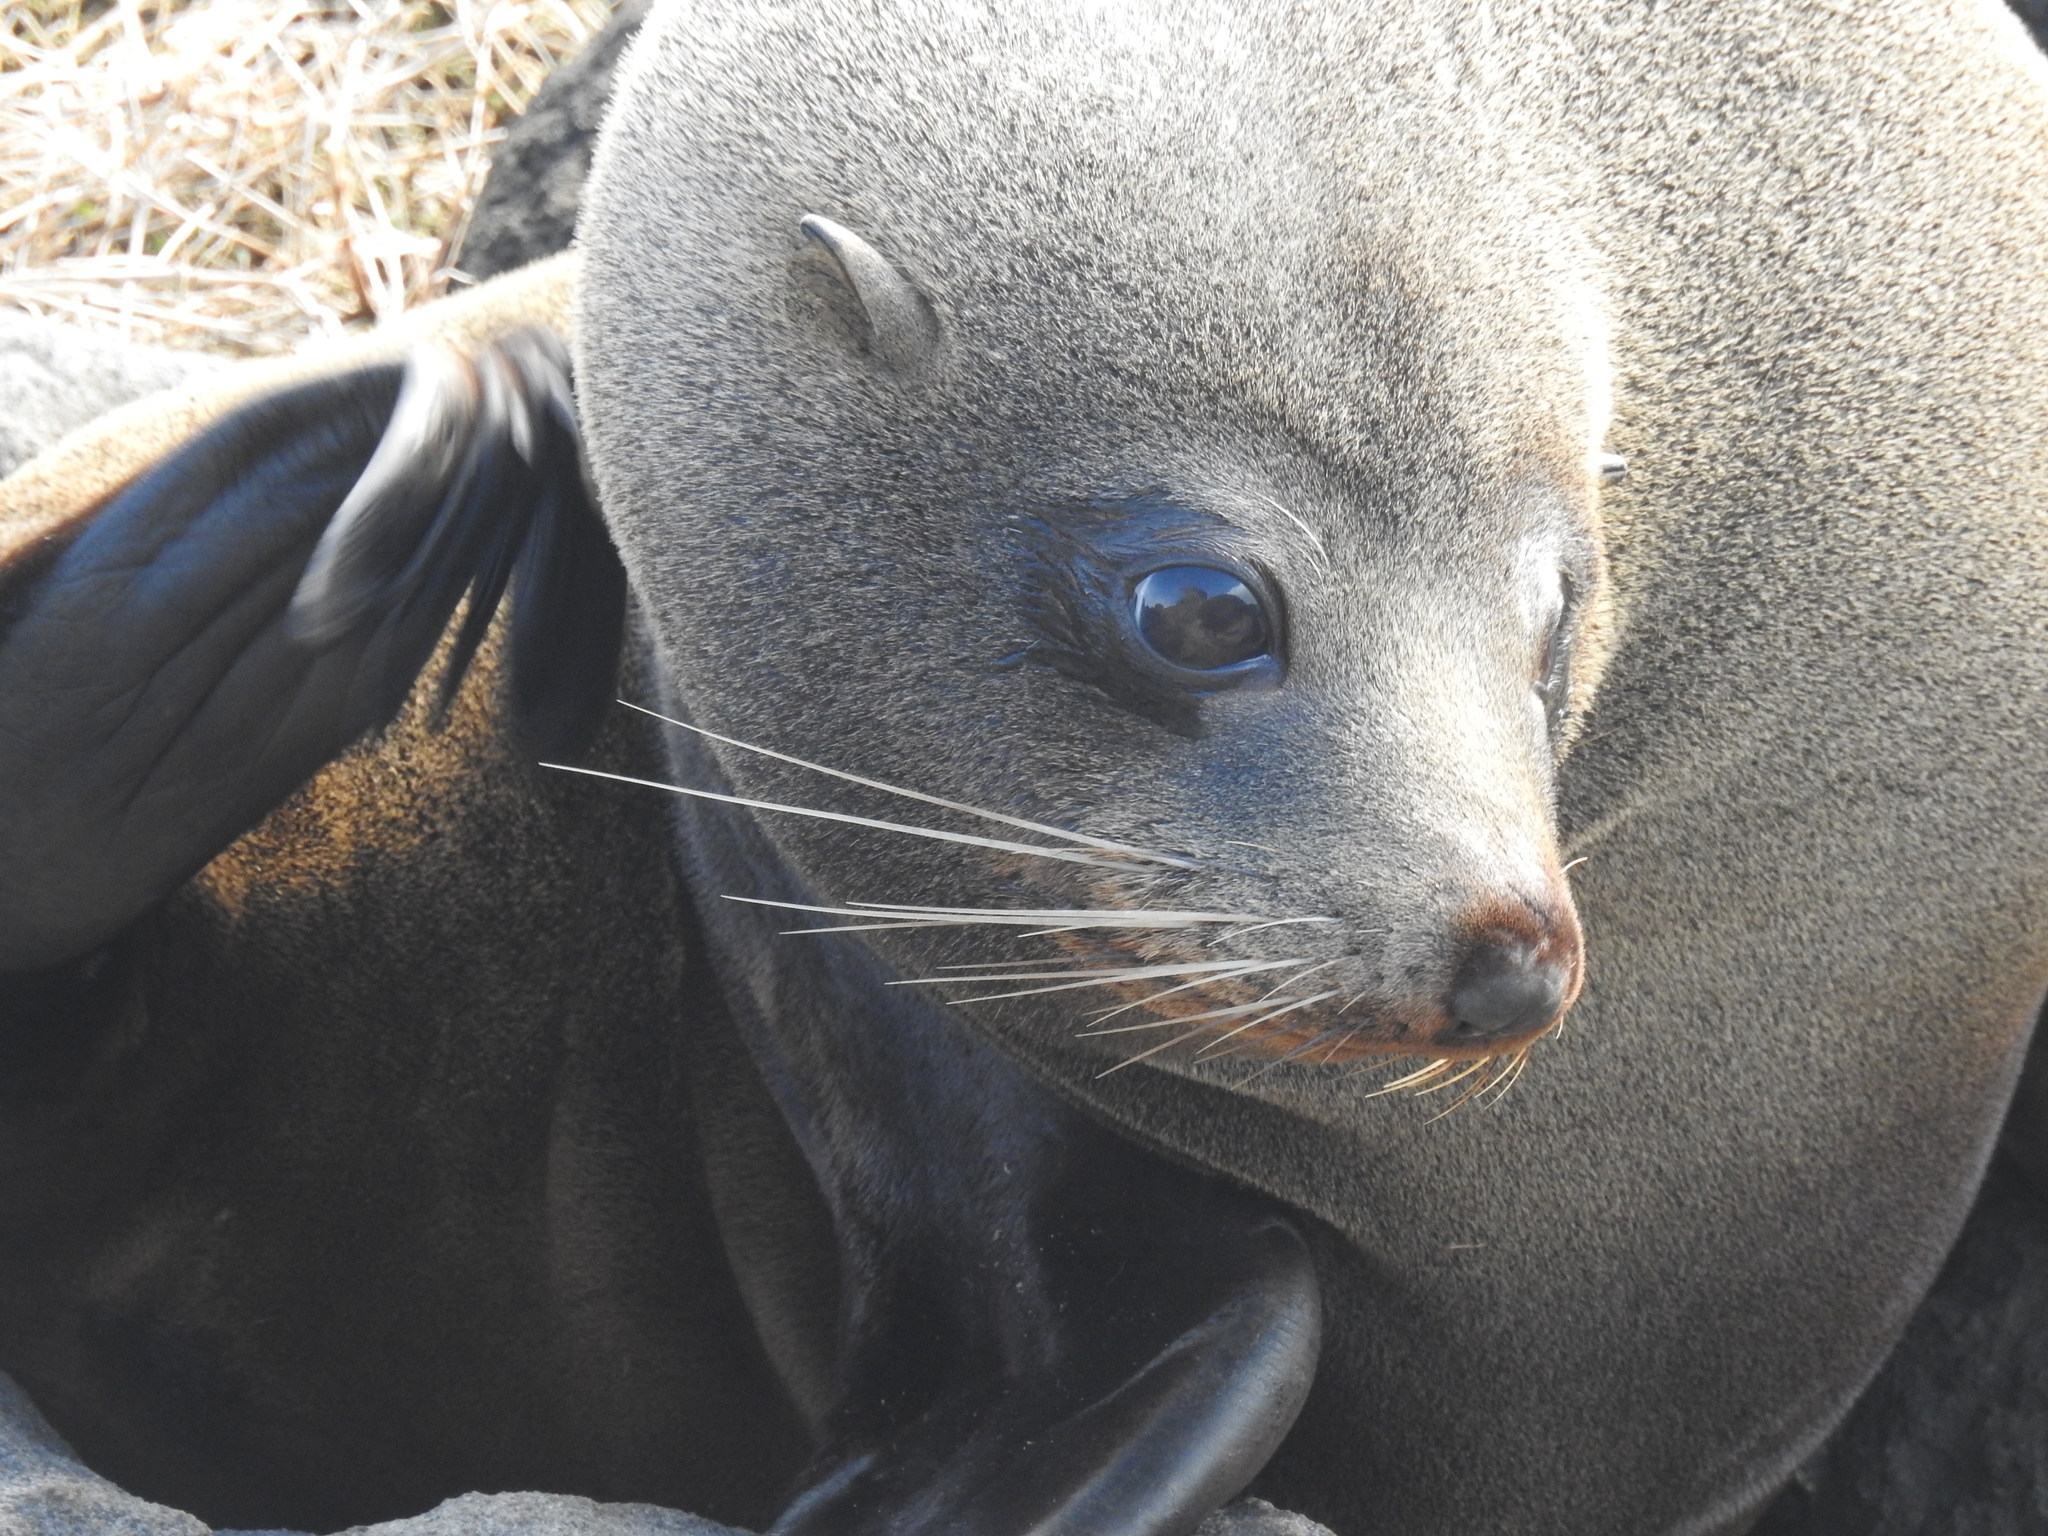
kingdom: Animalia
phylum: Chordata
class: Mammalia
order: Carnivora
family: Otariidae
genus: Arctocephalus
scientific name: Arctocephalus forsteri
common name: New zealand fur seal
